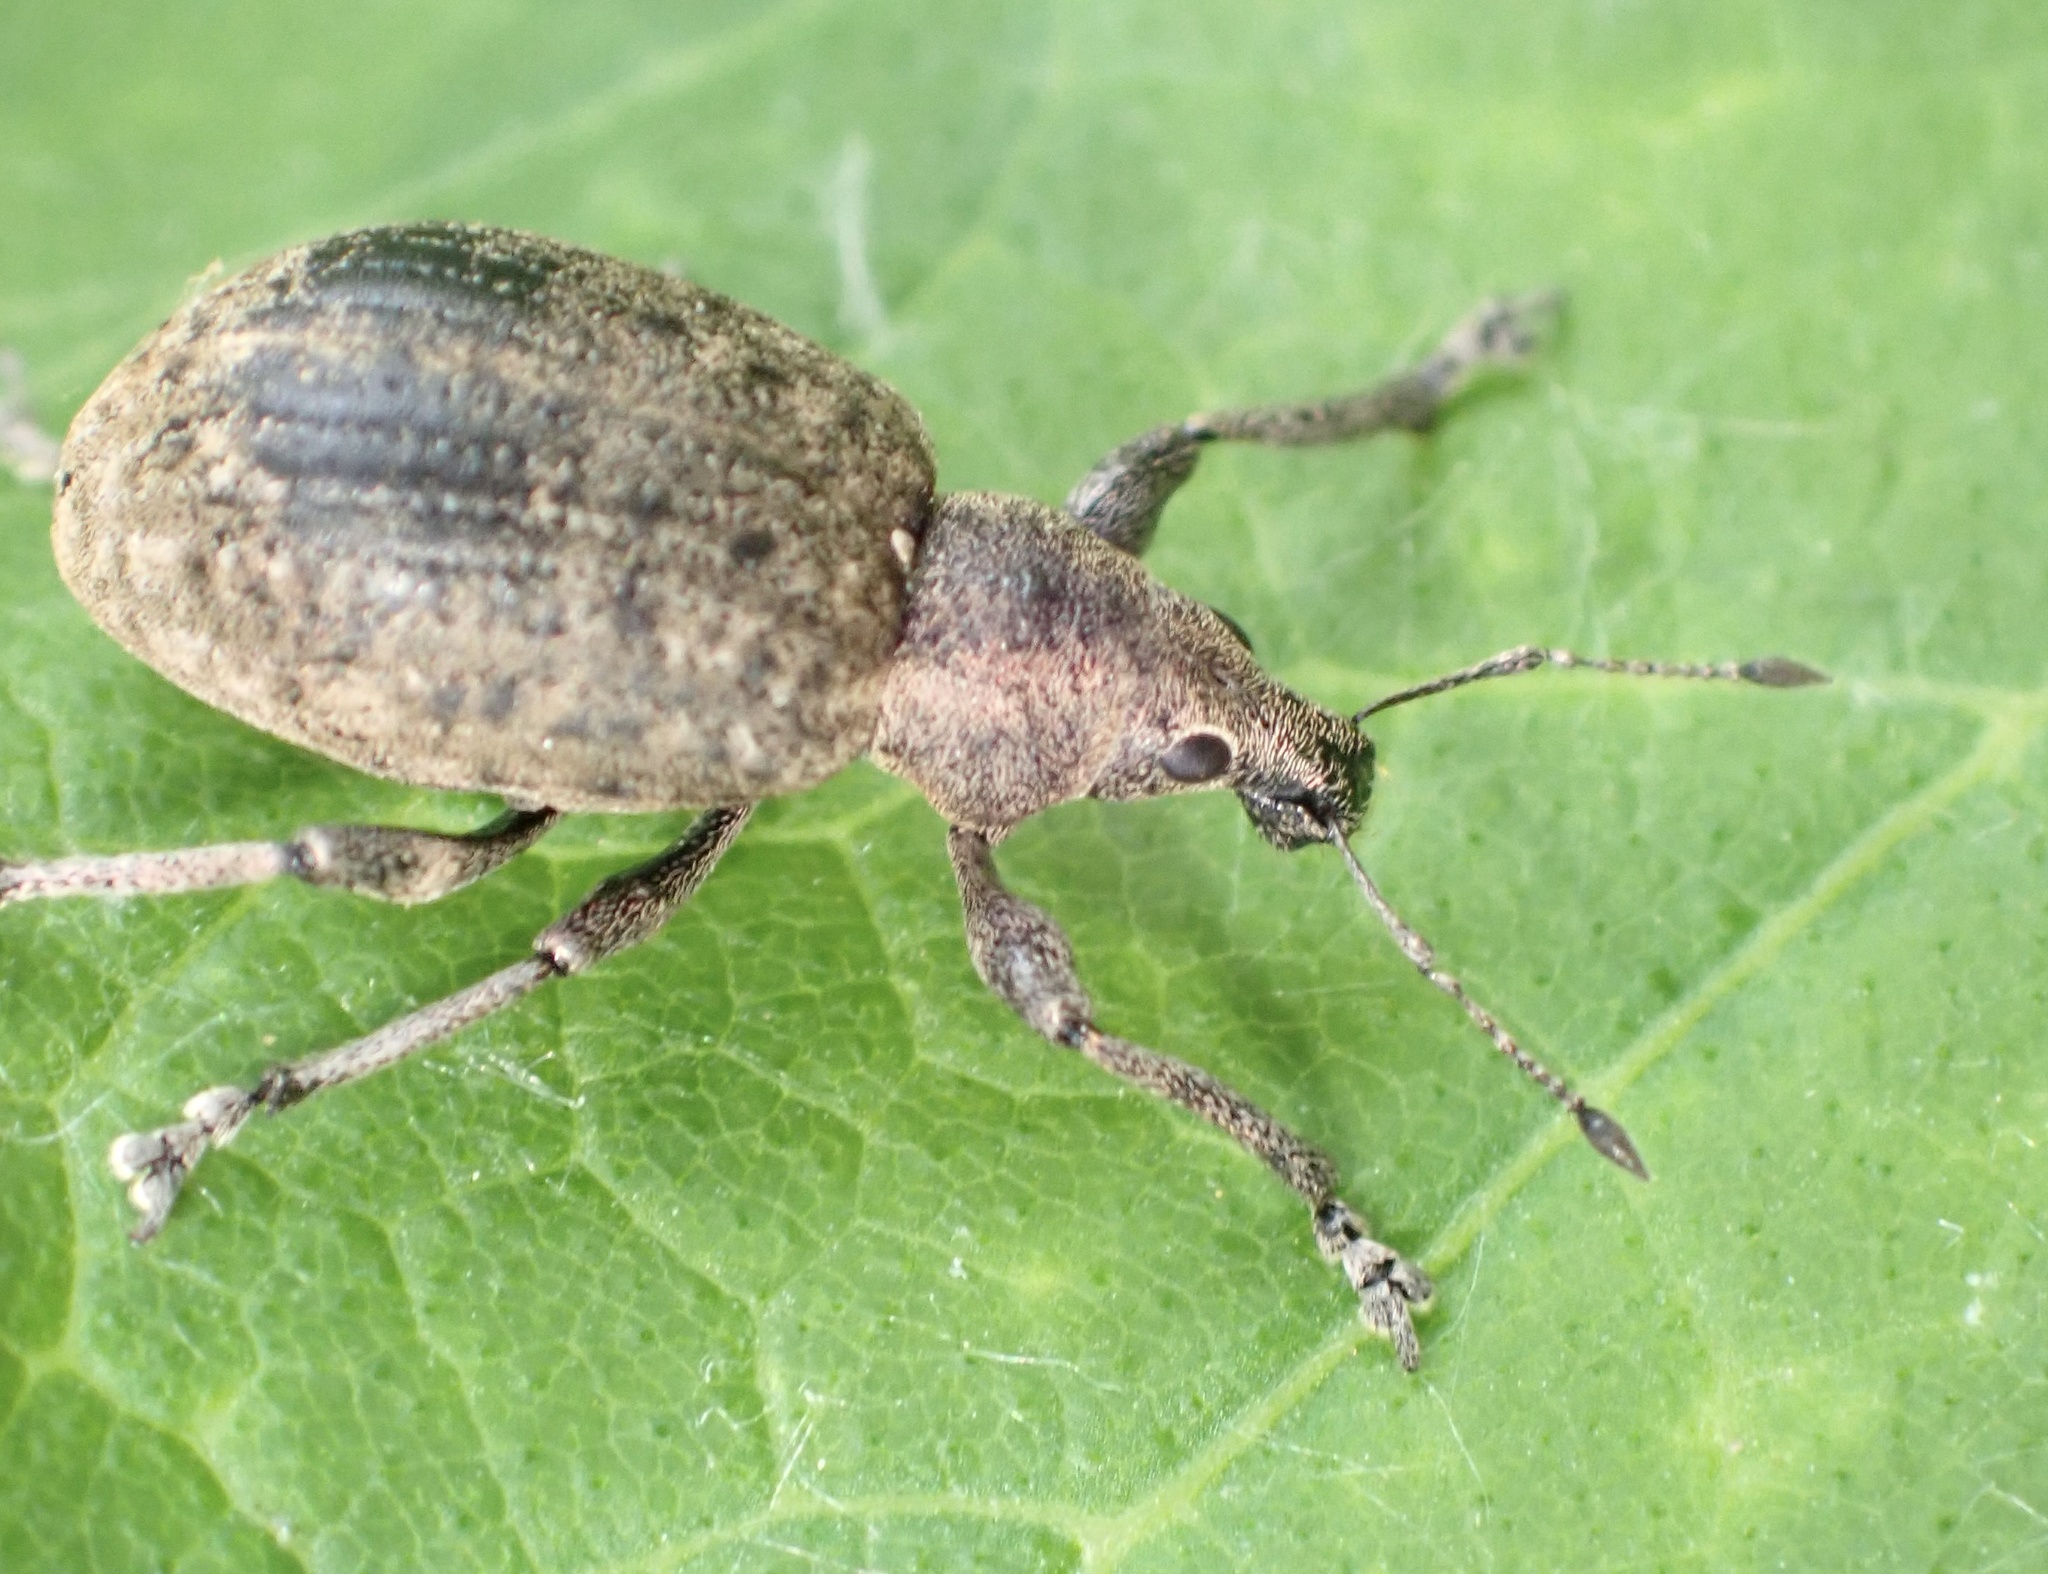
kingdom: Animalia
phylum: Arthropoda
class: Insecta
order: Coleoptera
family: Curculionidae
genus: Liophloeus
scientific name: Liophloeus tessulatus
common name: Weevil
